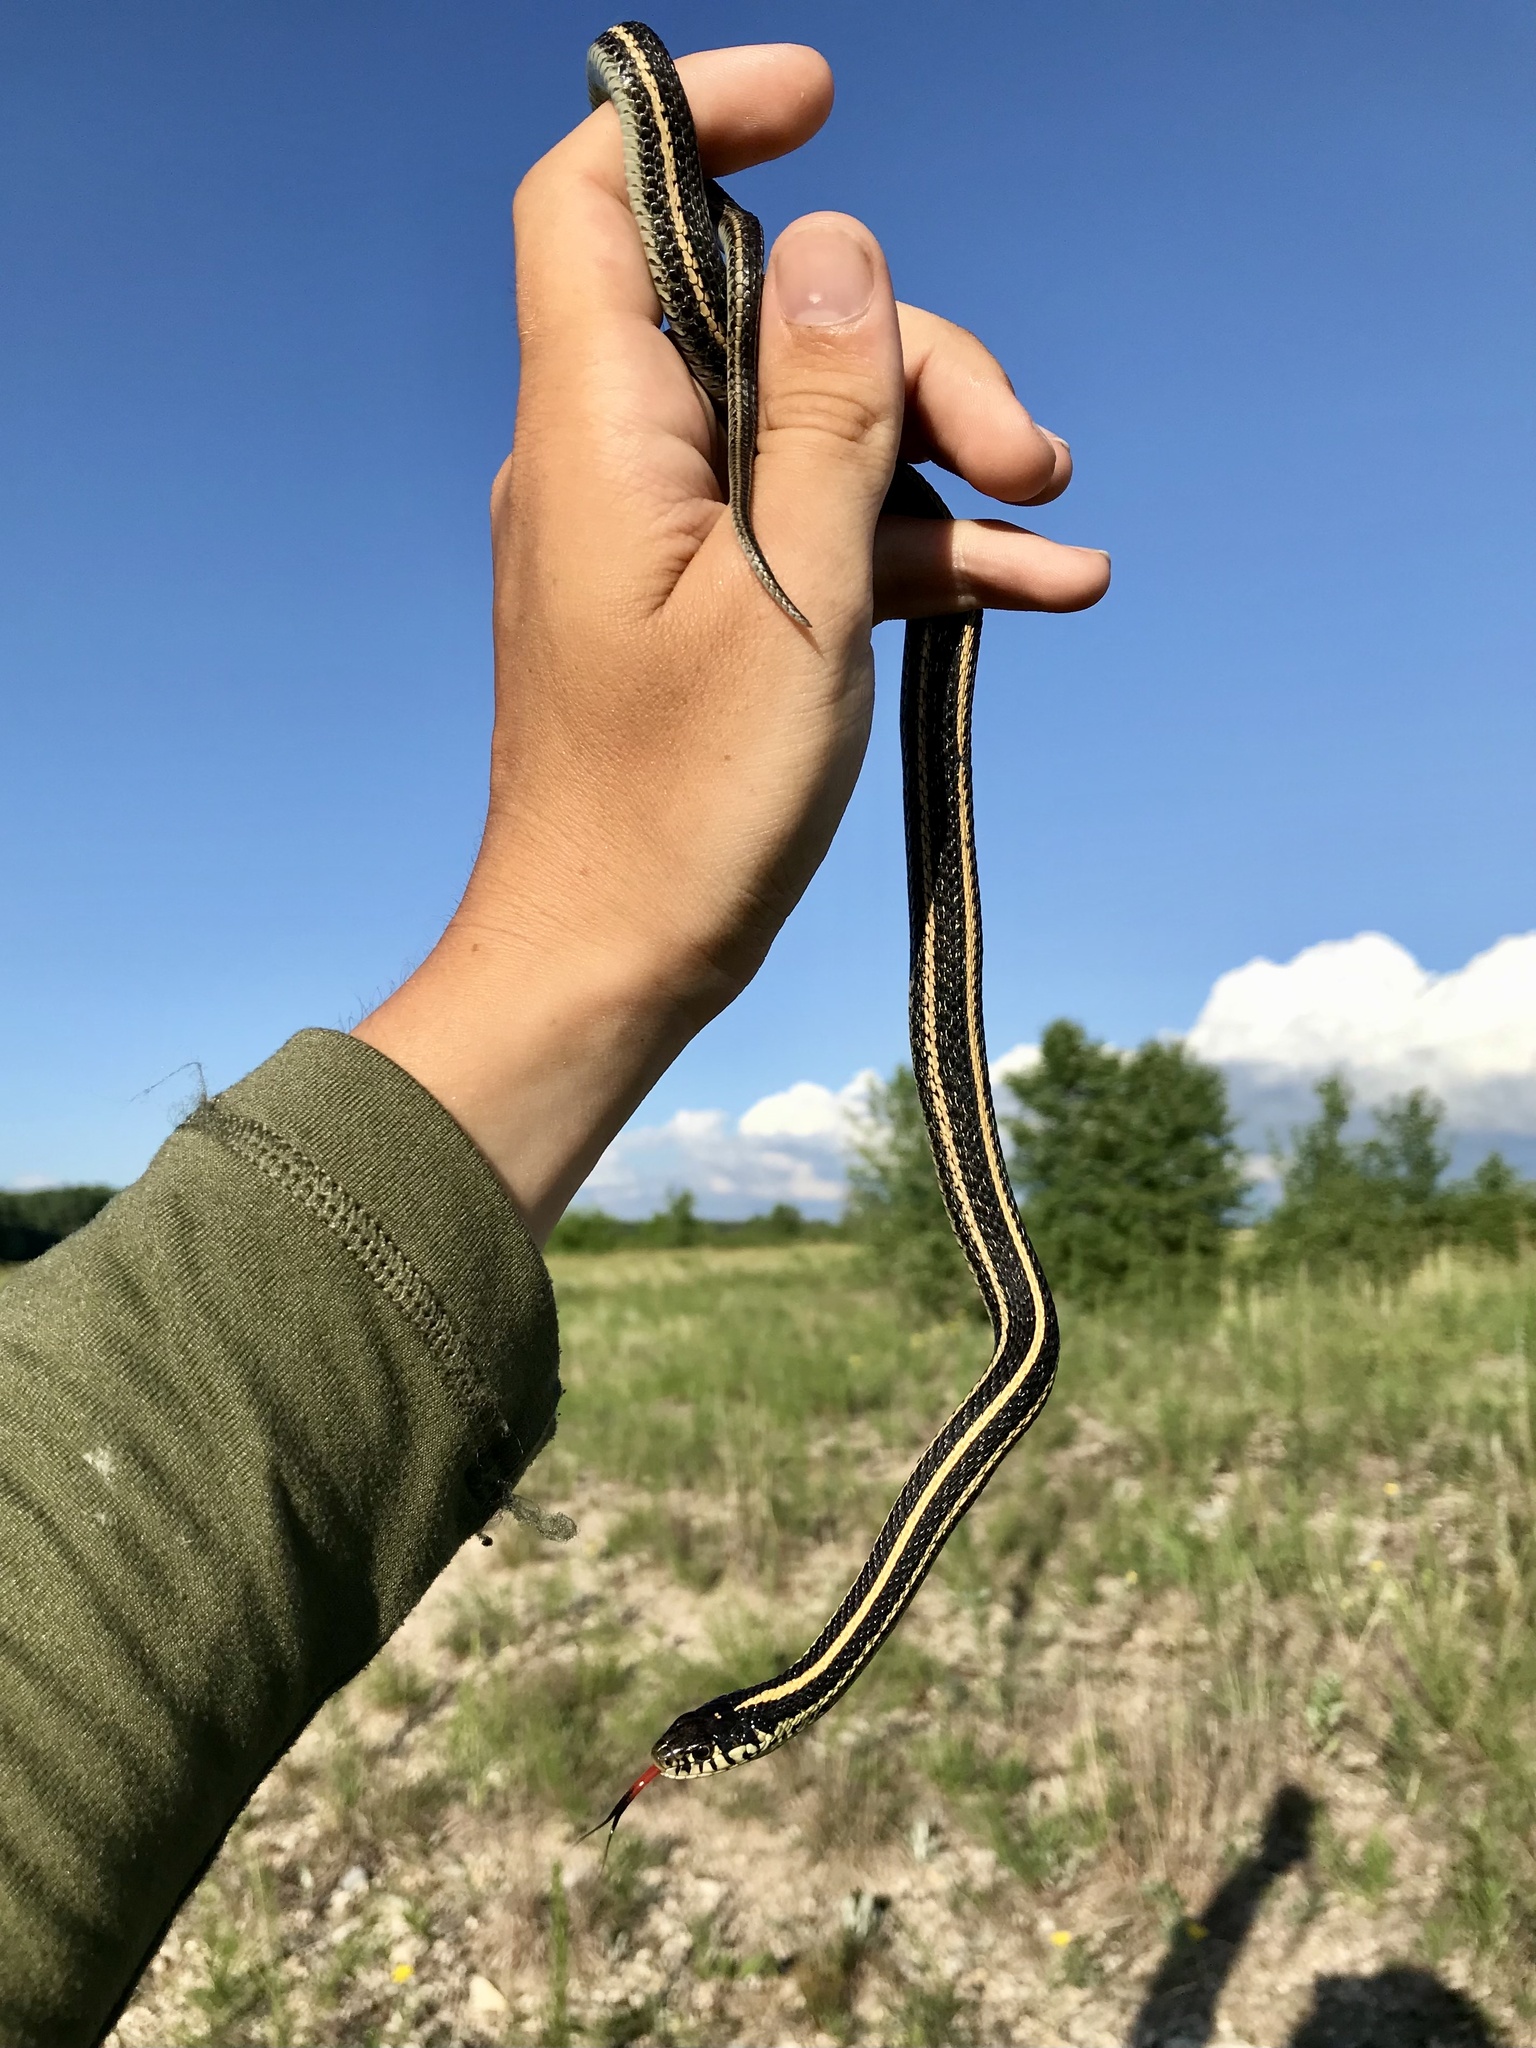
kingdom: Animalia
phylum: Chordata
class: Squamata
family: Colubridae
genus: Thamnophis
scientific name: Thamnophis radix
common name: Plains garter snake
